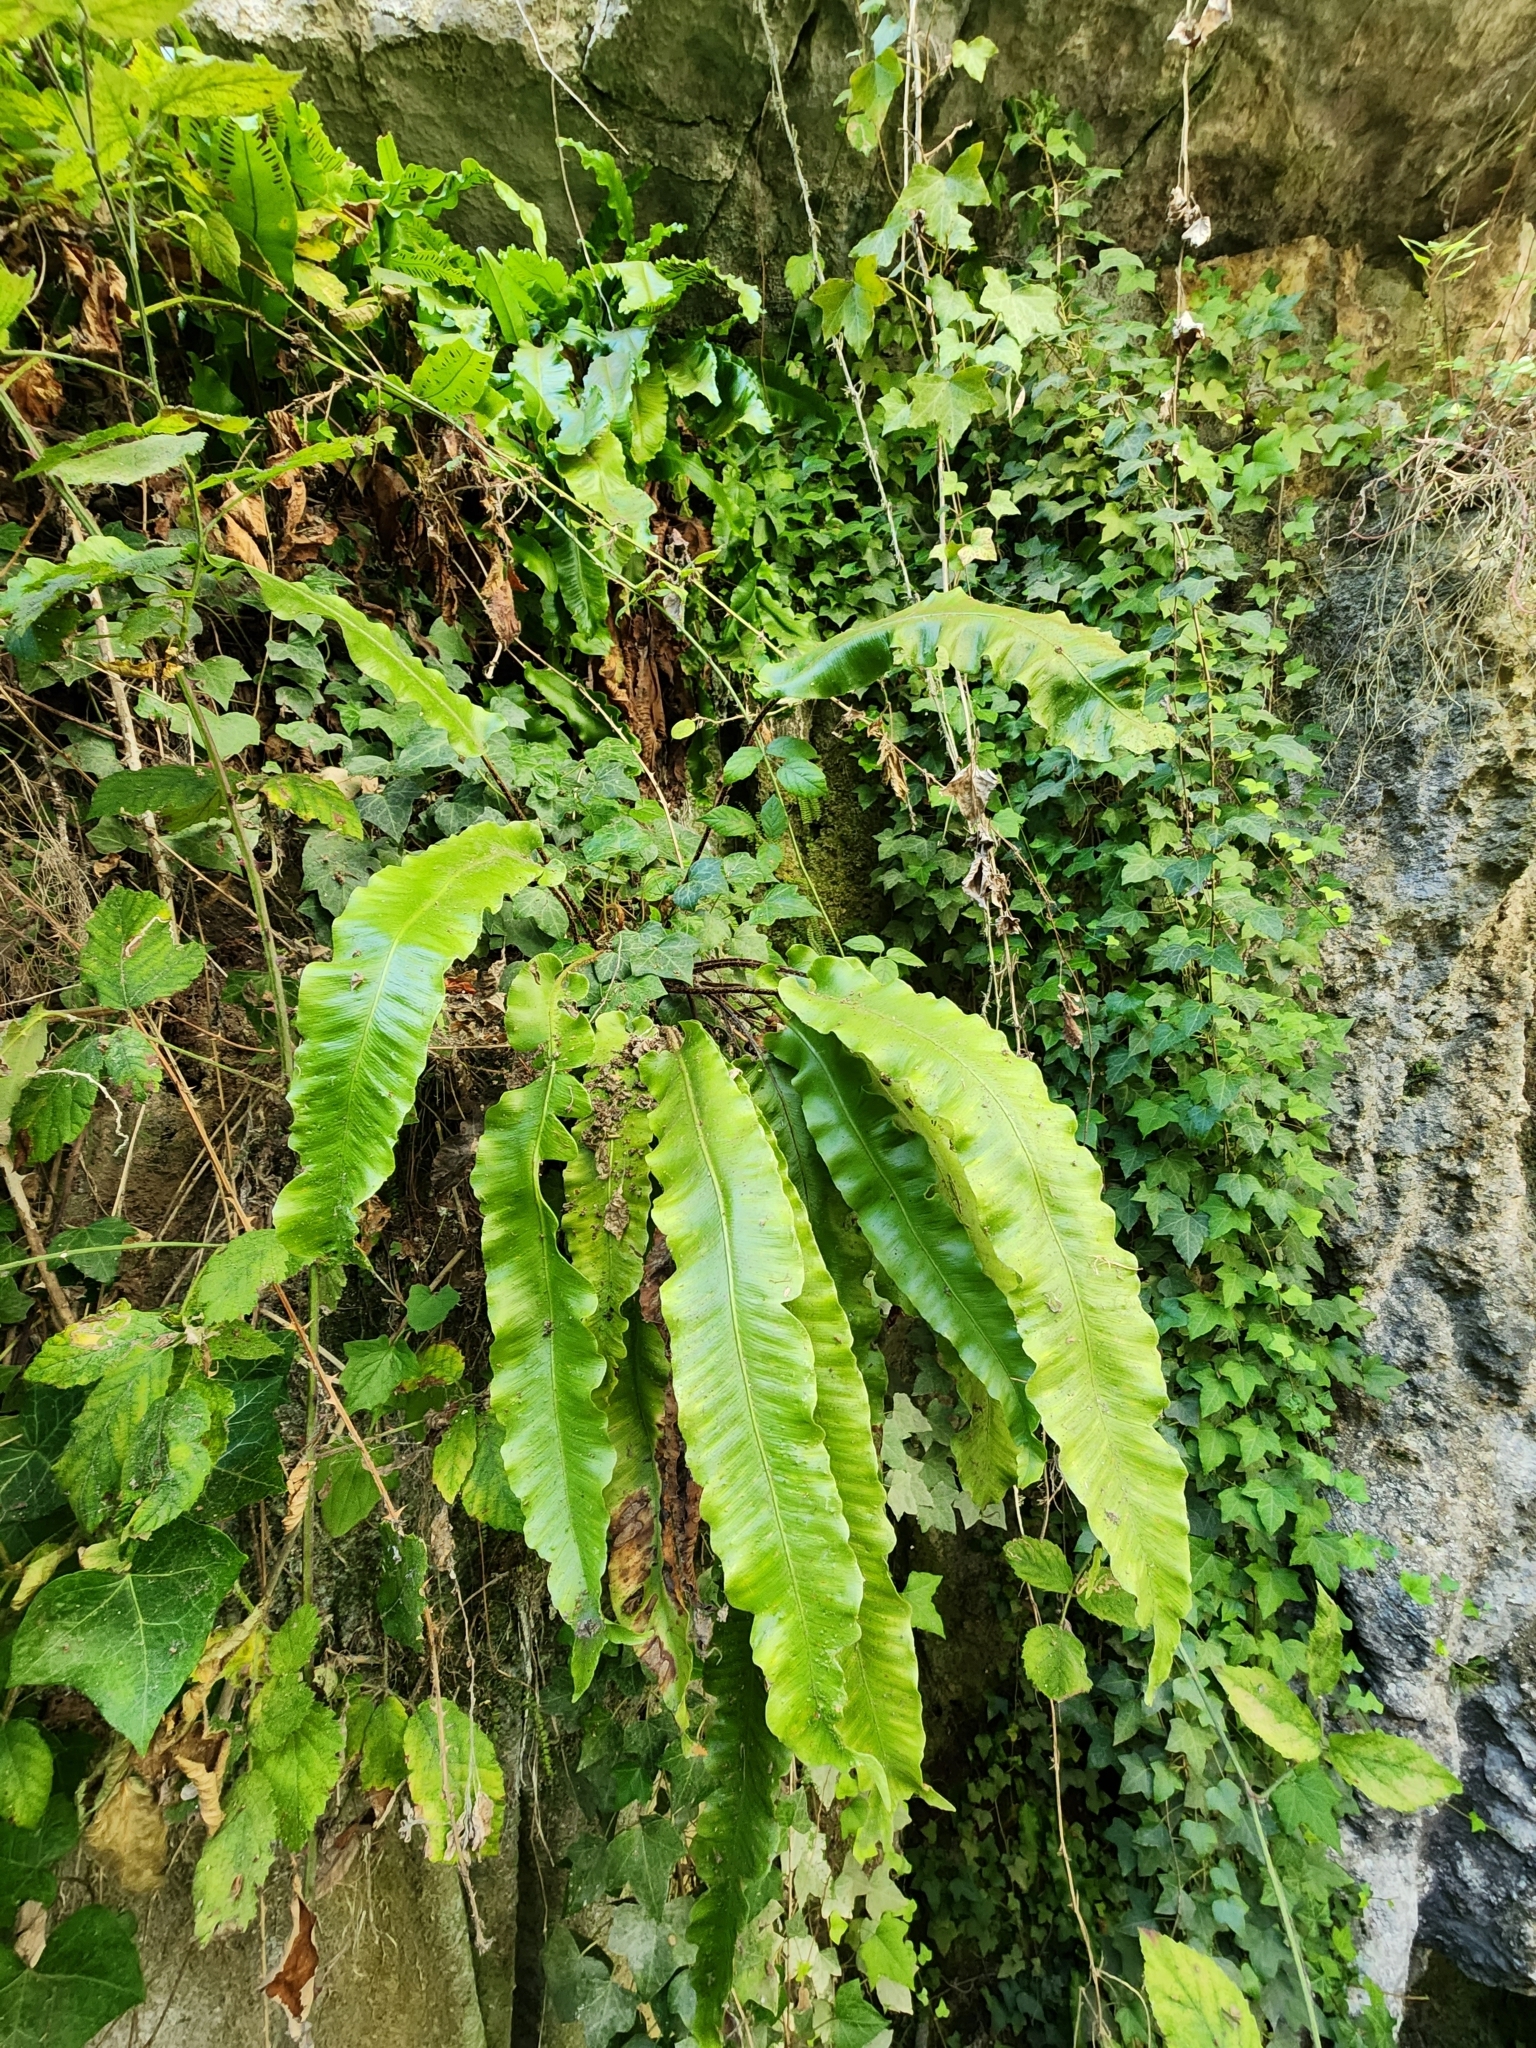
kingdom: Plantae
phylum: Tracheophyta
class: Polypodiopsida
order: Polypodiales
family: Aspleniaceae
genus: Asplenium
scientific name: Asplenium scolopendrium
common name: Hart's-tongue fern
